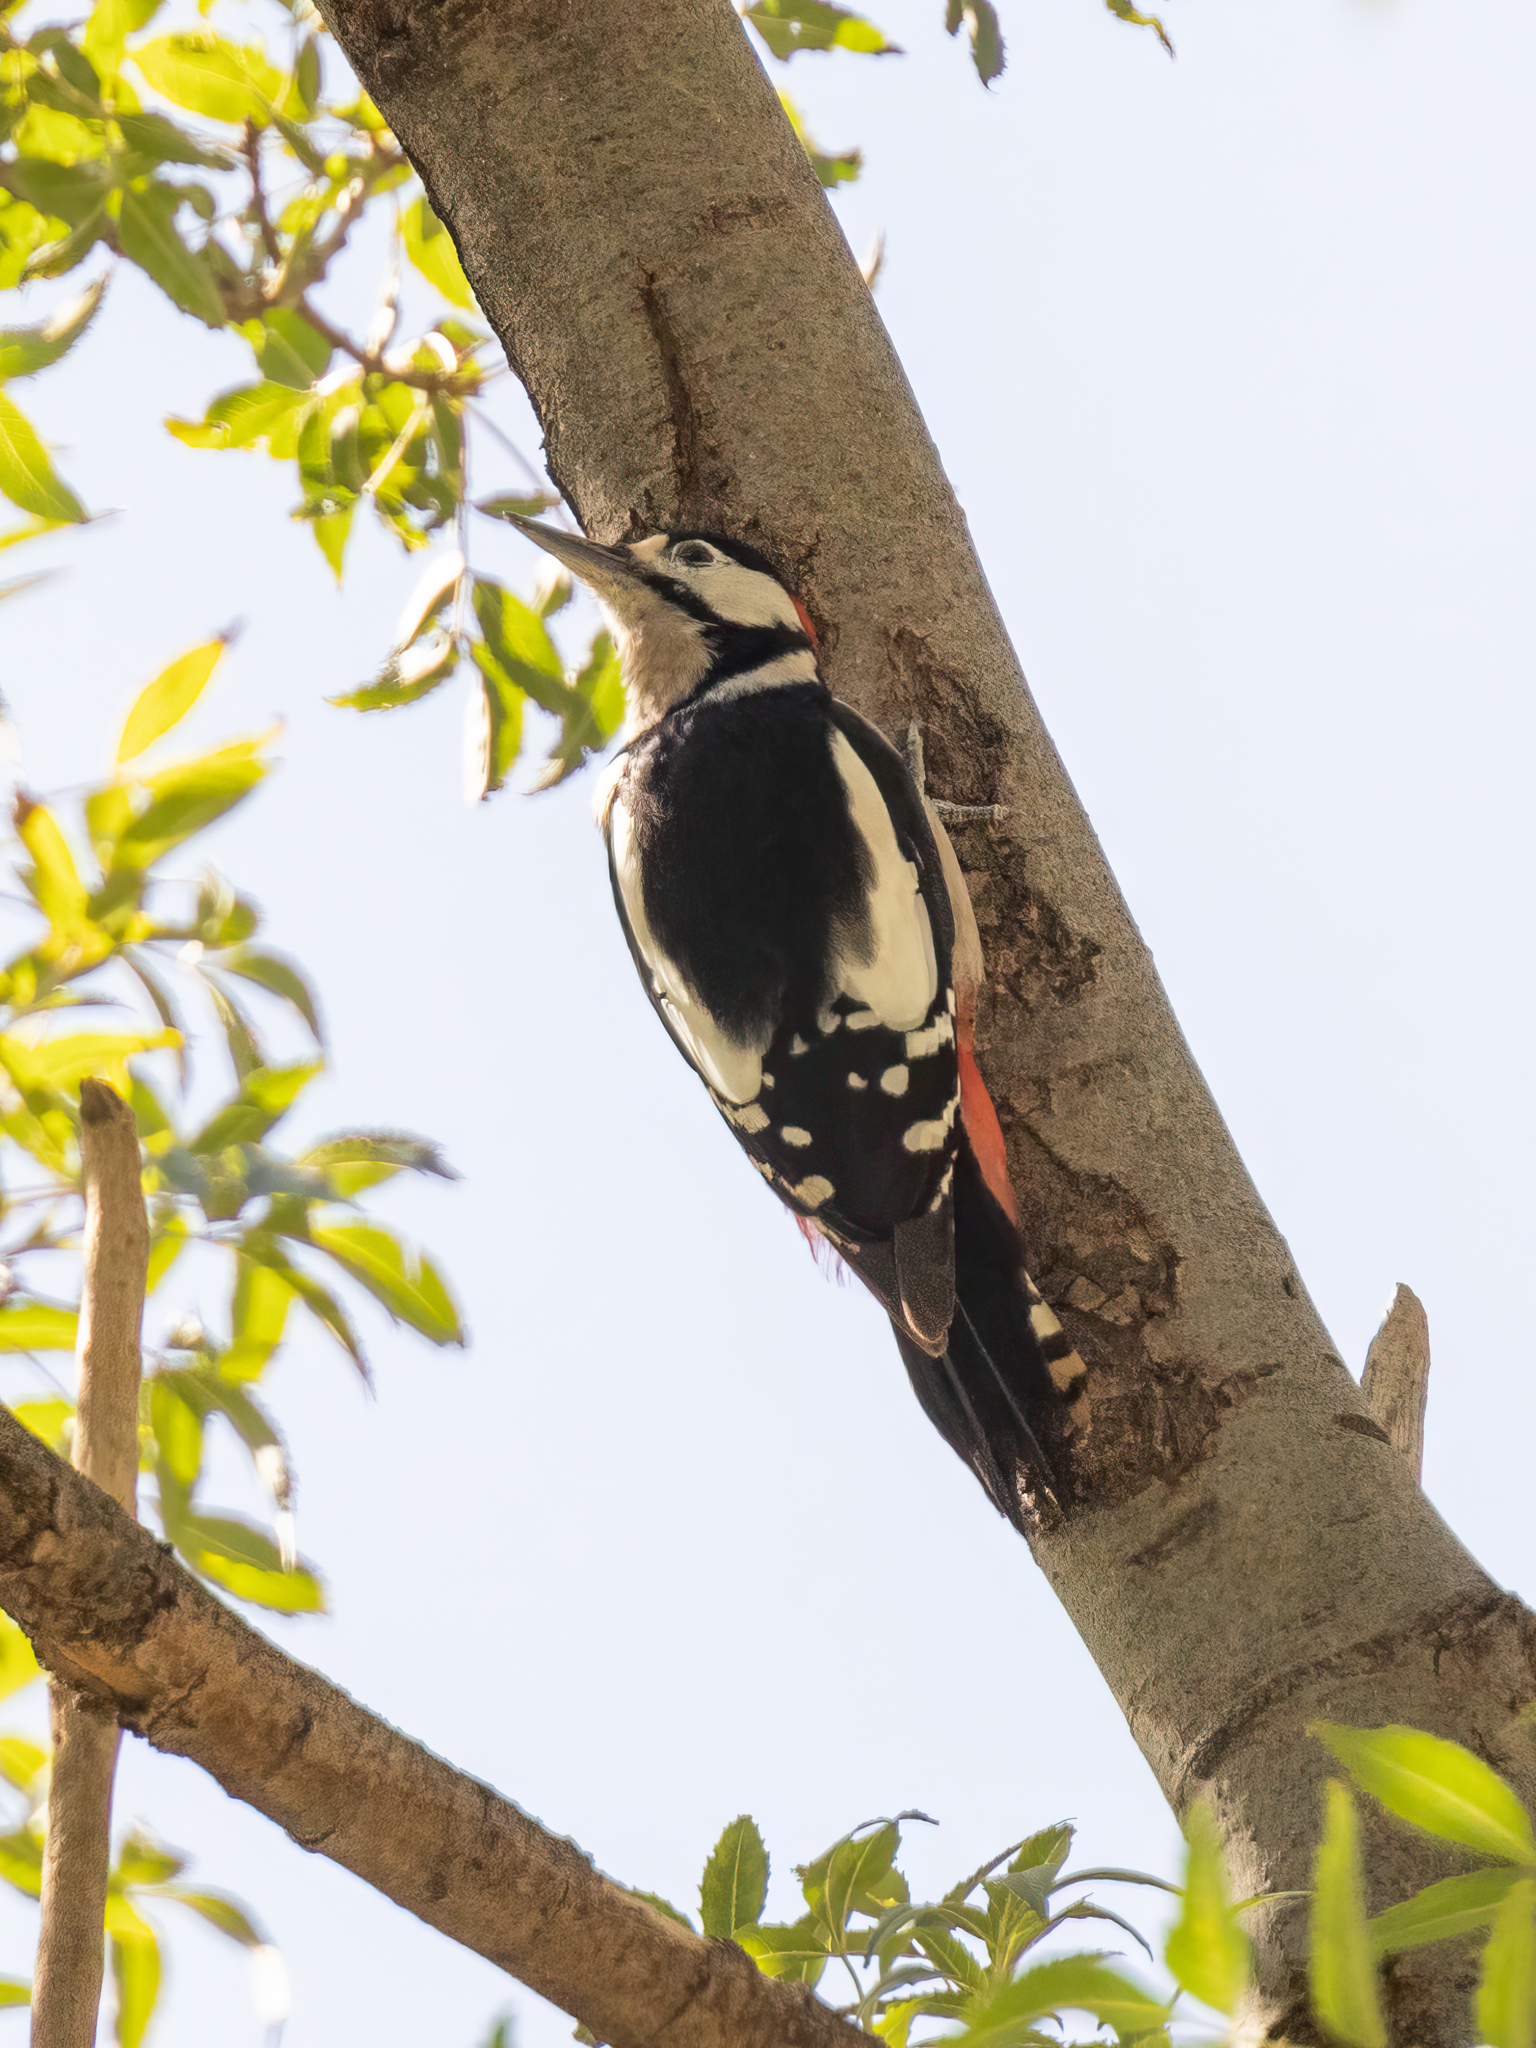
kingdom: Animalia
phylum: Chordata
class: Aves
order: Piciformes
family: Picidae
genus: Dendrocopos
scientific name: Dendrocopos major
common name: Great spotted woodpecker
